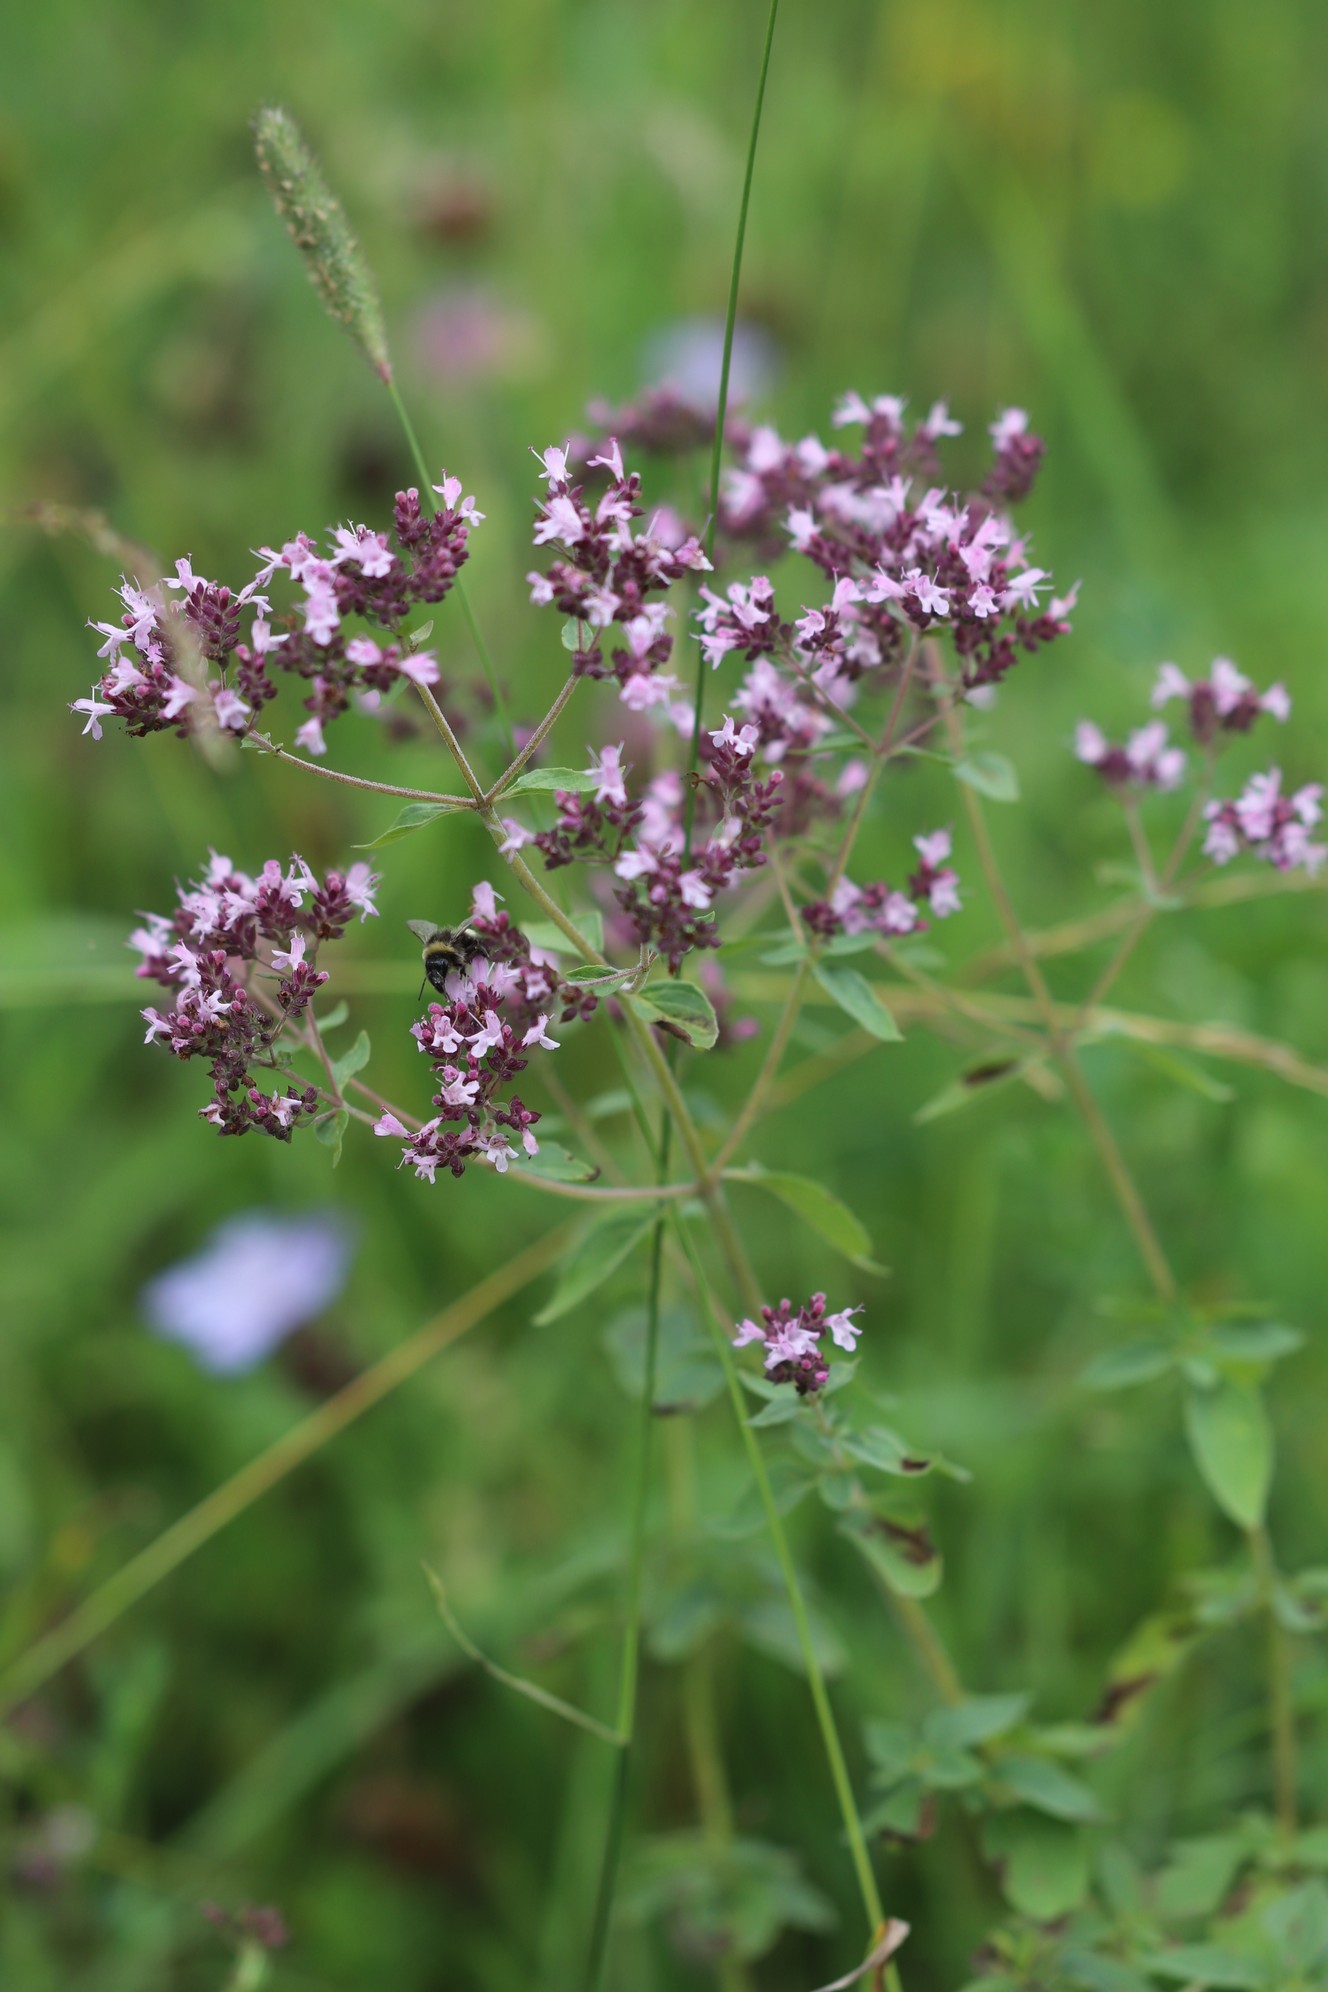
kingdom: Plantae
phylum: Tracheophyta
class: Magnoliopsida
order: Lamiales
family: Lamiaceae
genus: Origanum
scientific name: Origanum vulgare
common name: Wild marjoram
